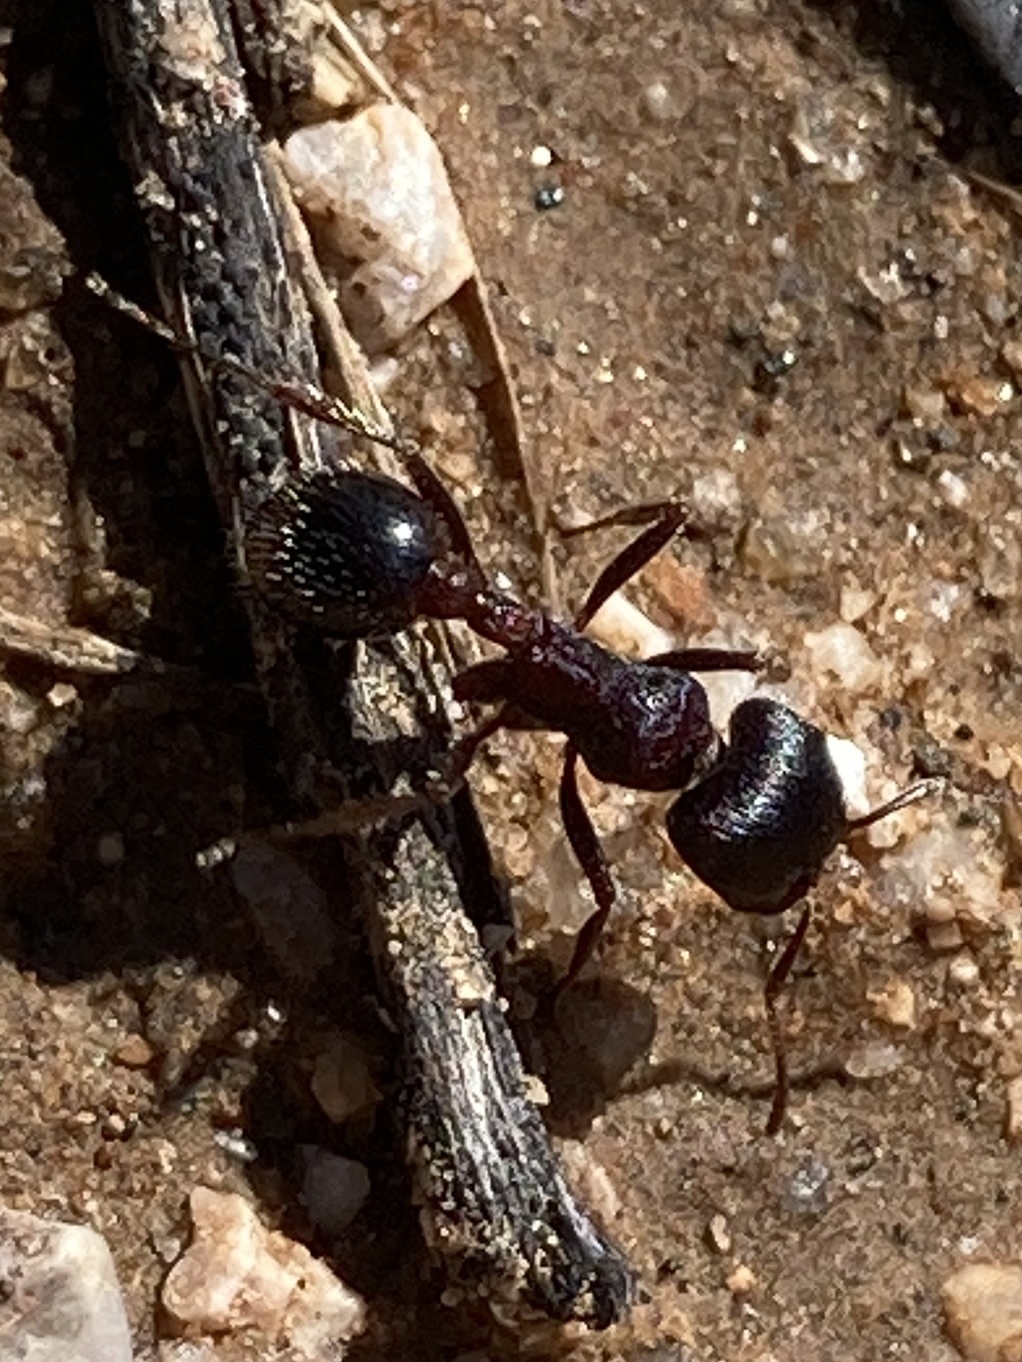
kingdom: Animalia
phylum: Arthropoda
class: Insecta
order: Hymenoptera
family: Formicidae
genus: Pogonomyrmex
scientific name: Pogonomyrmex rugosus
